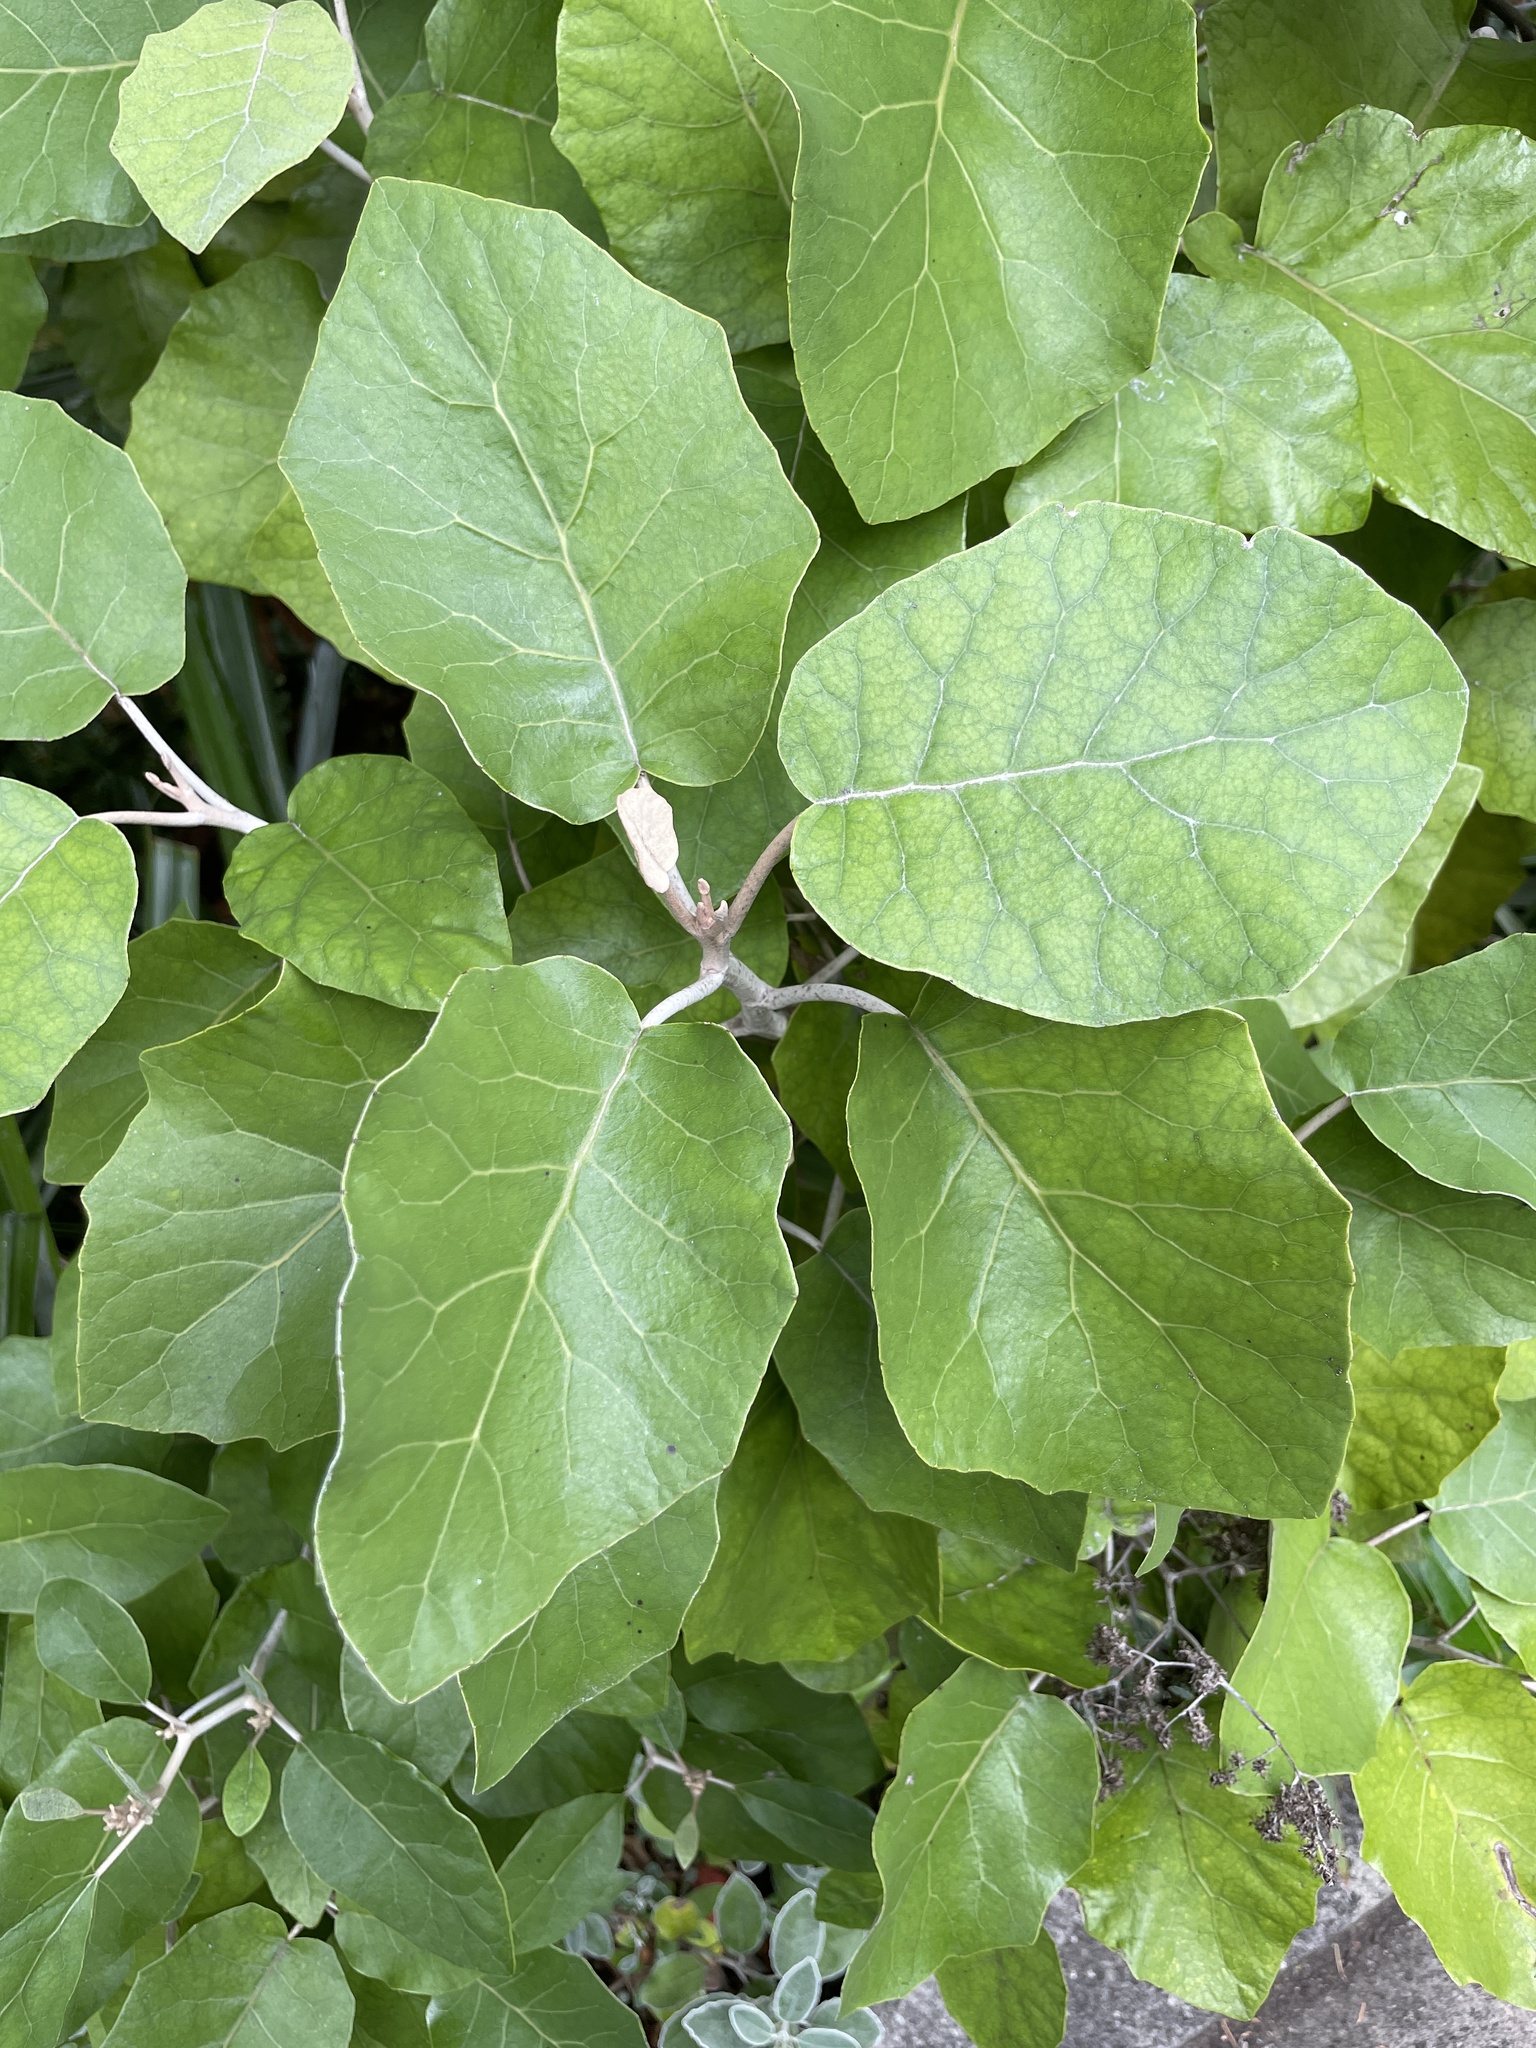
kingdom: Plantae
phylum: Tracheophyta
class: Magnoliopsida
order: Asterales
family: Asteraceae
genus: Brachyglottis
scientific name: Brachyglottis repanda
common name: Hedge ragwort
